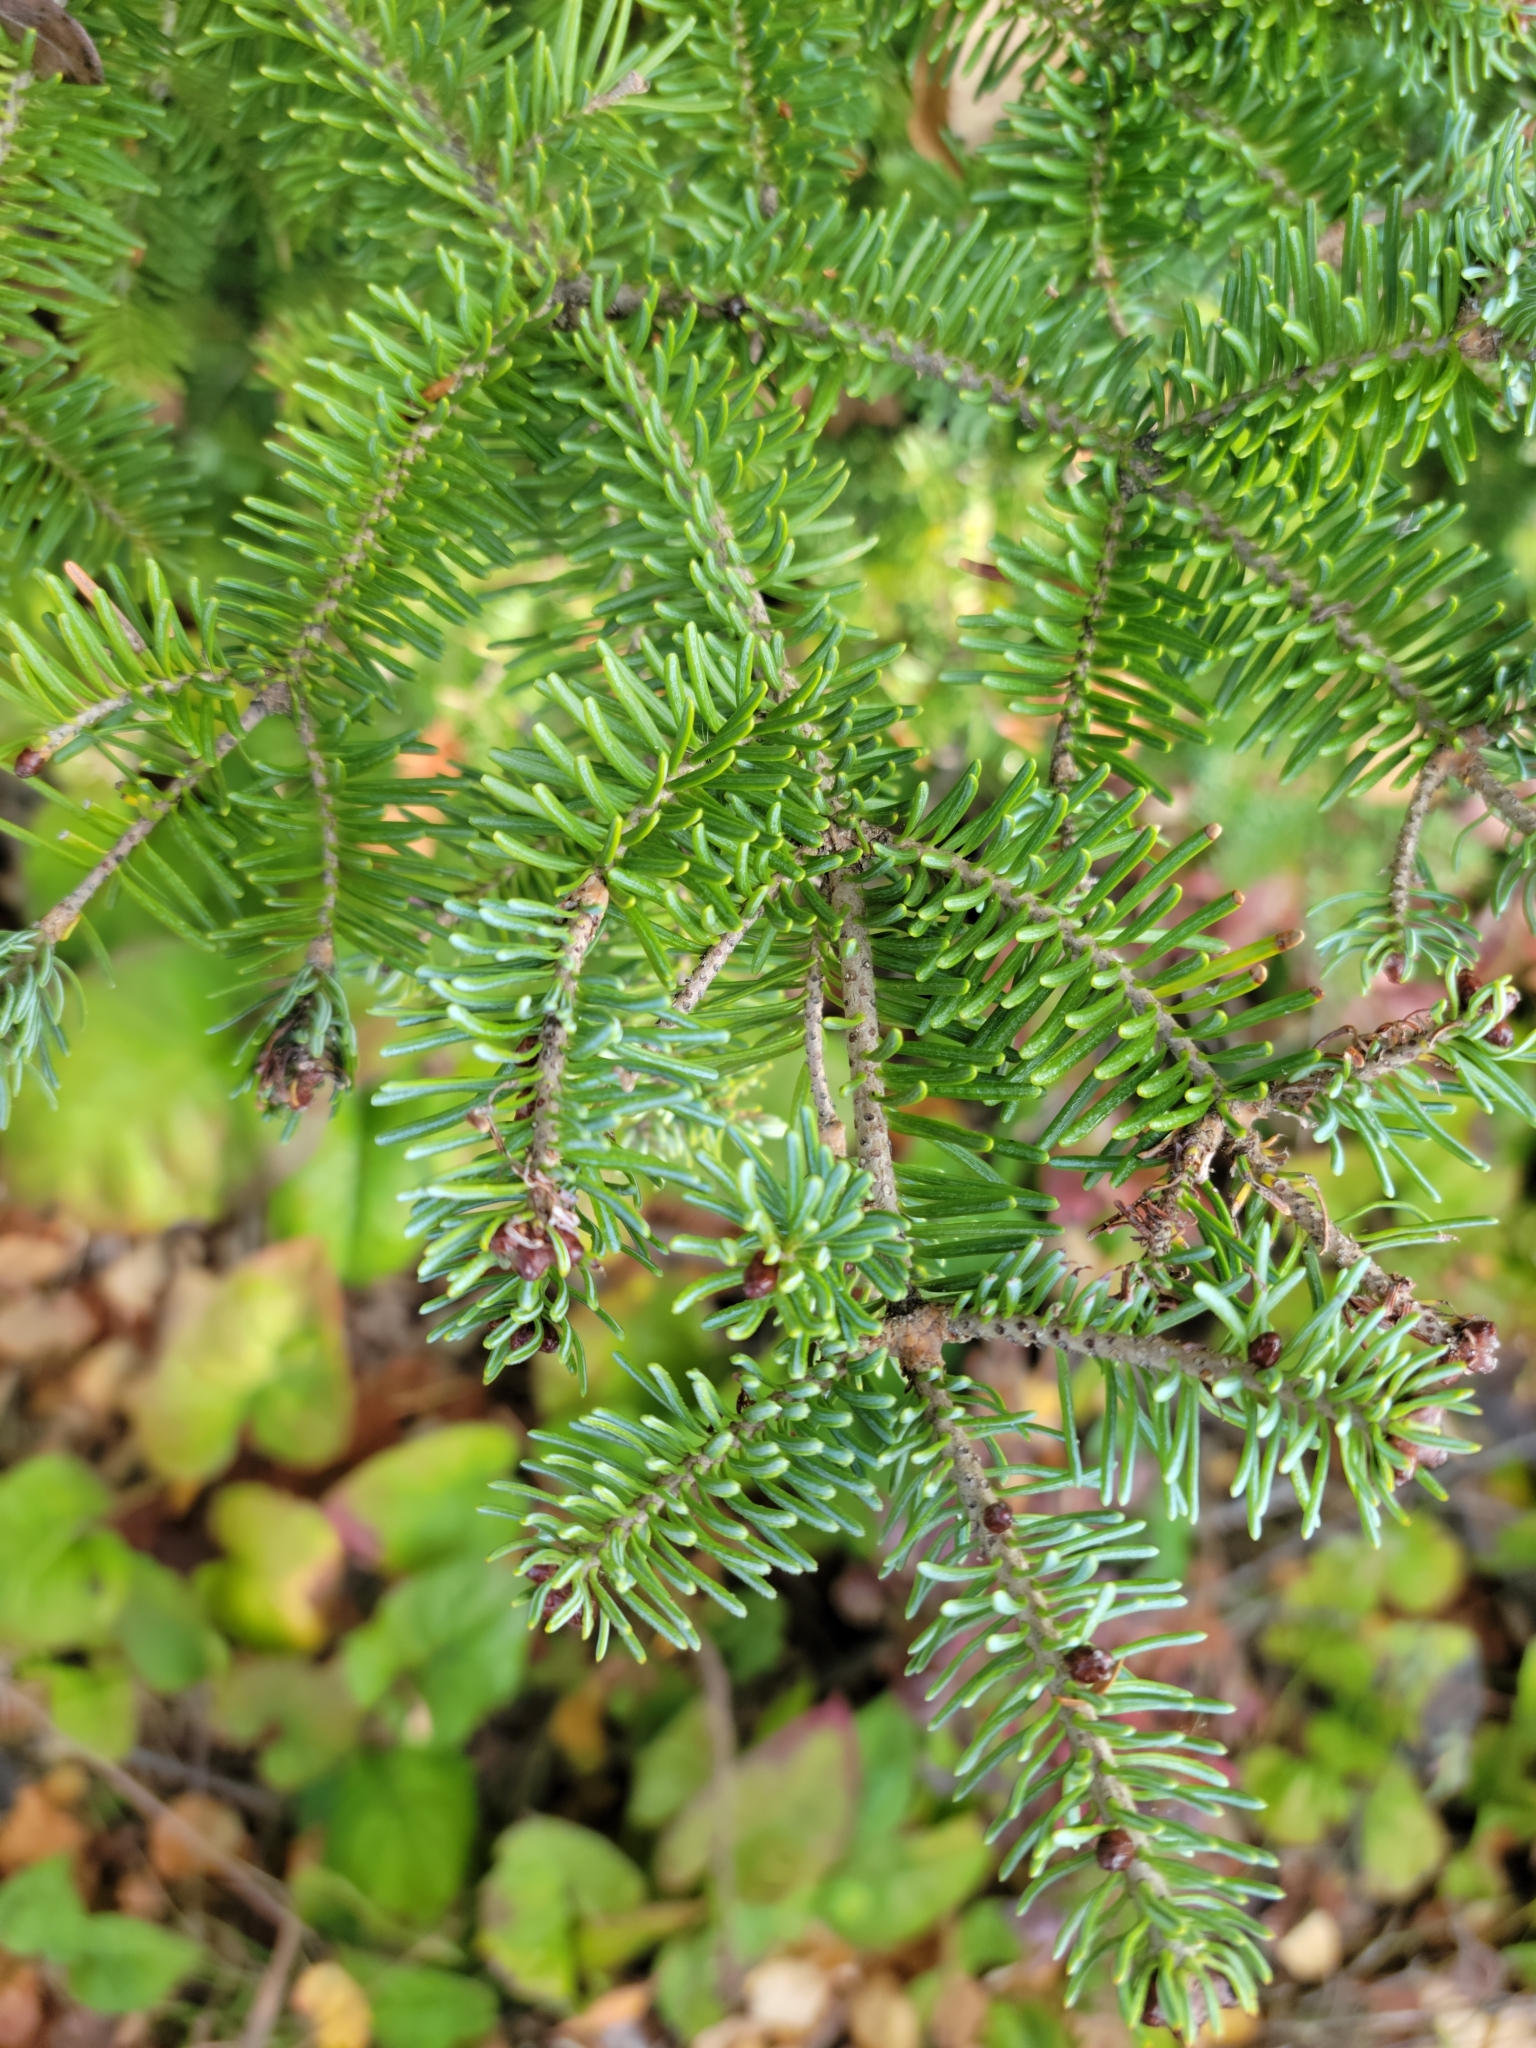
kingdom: Plantae
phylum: Tracheophyta
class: Pinopsida
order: Pinales
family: Pinaceae
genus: Abies
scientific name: Abies balsamea
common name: Balsam fir
